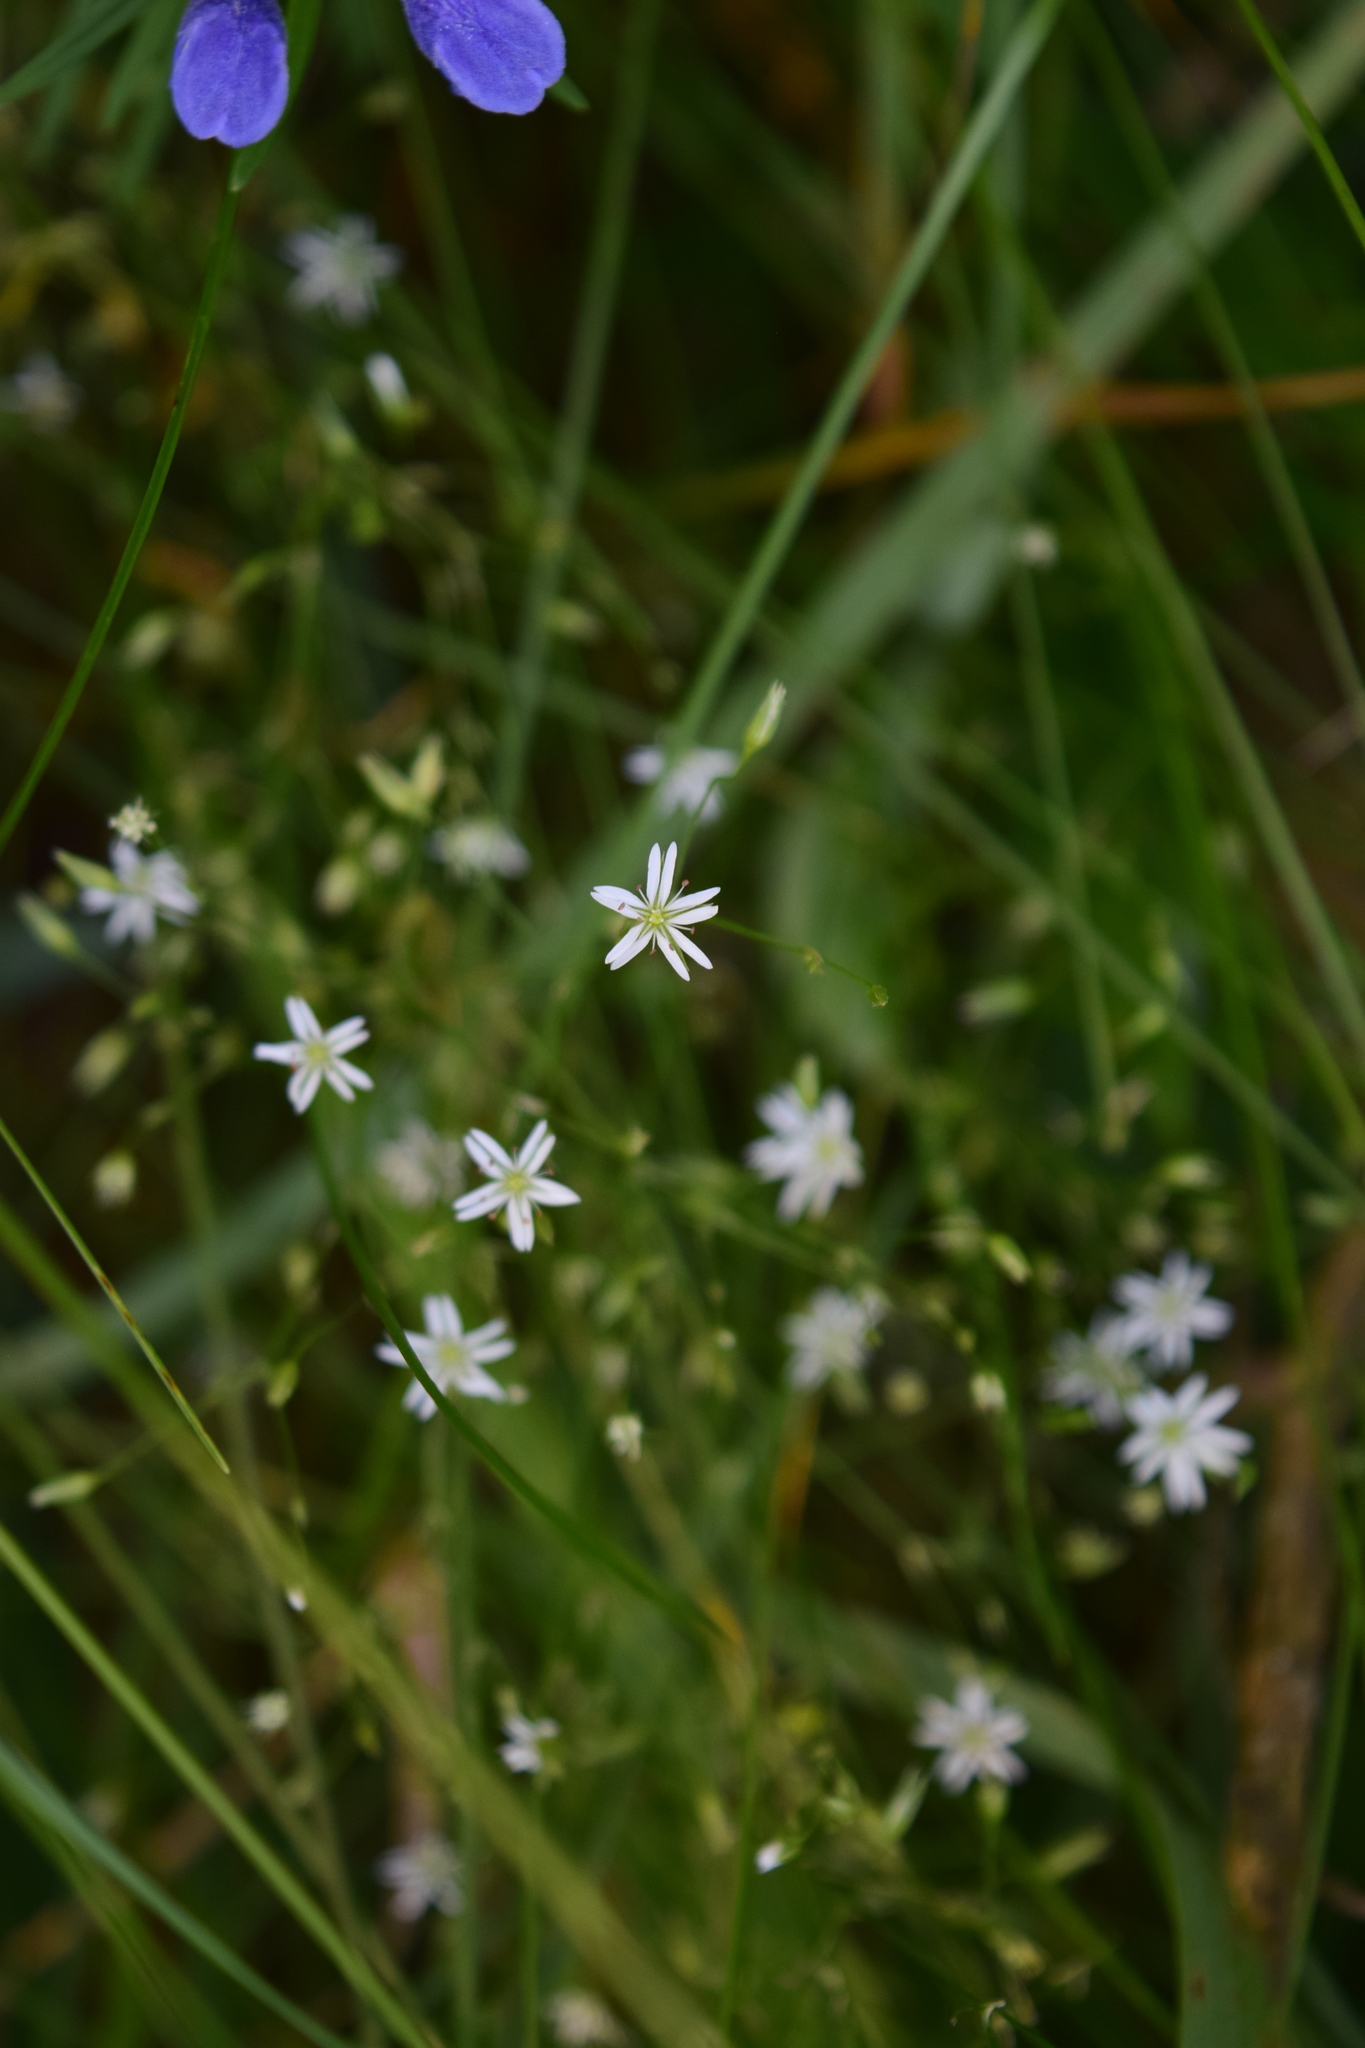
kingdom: Plantae
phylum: Tracheophyta
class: Magnoliopsida
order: Caryophyllales
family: Caryophyllaceae
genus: Stellaria
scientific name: Stellaria graminea
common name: Grass-like starwort
